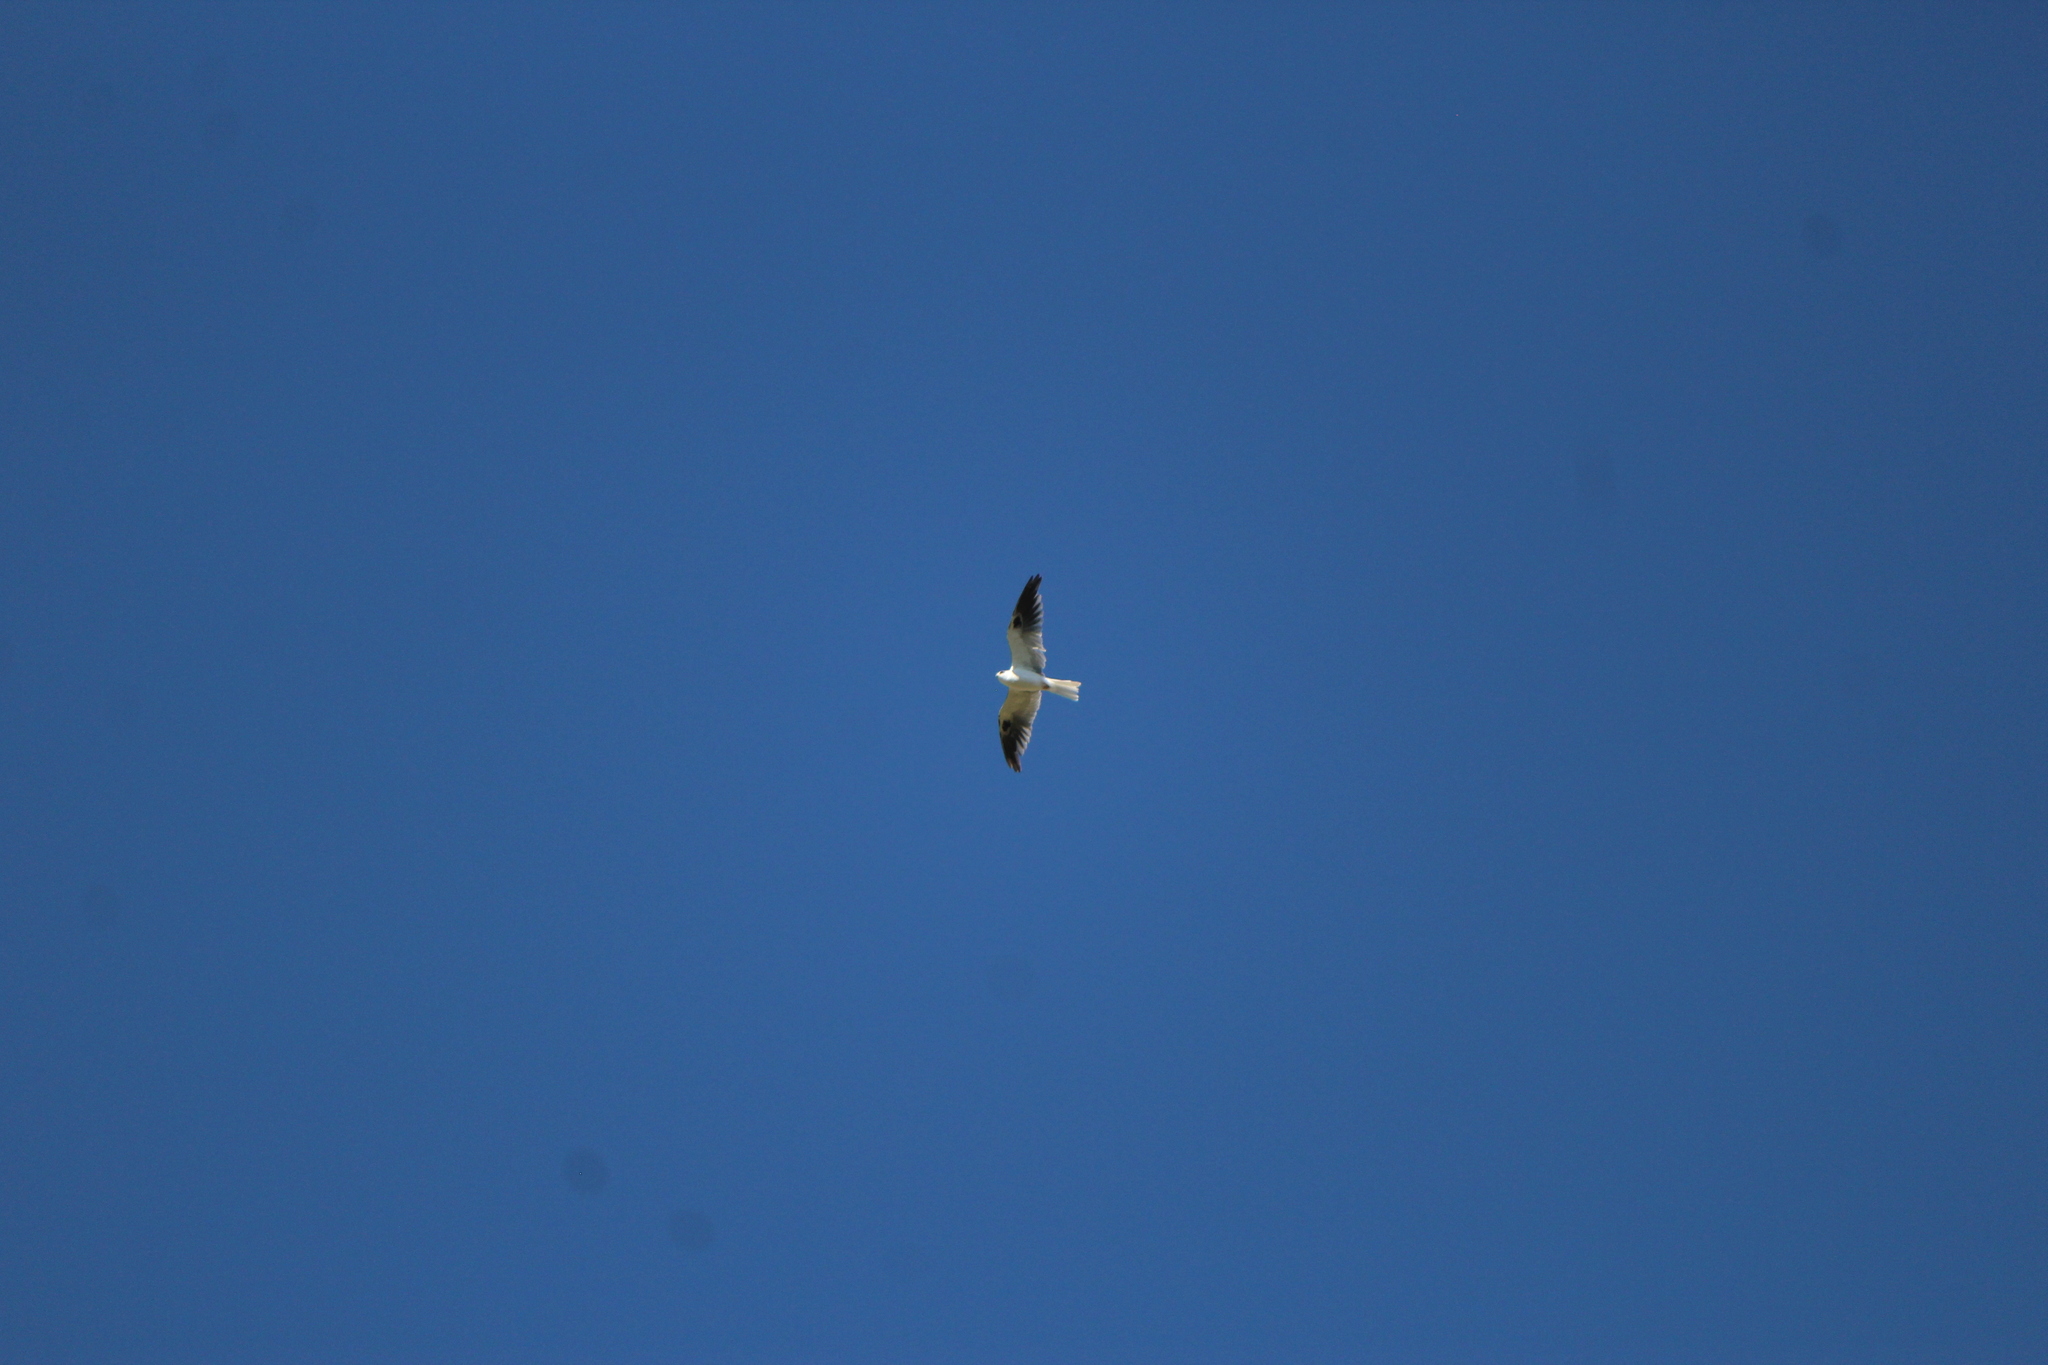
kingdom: Animalia
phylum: Chordata
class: Aves
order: Accipitriformes
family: Accipitridae
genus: Elanus
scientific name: Elanus leucurus
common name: White-tailed kite
